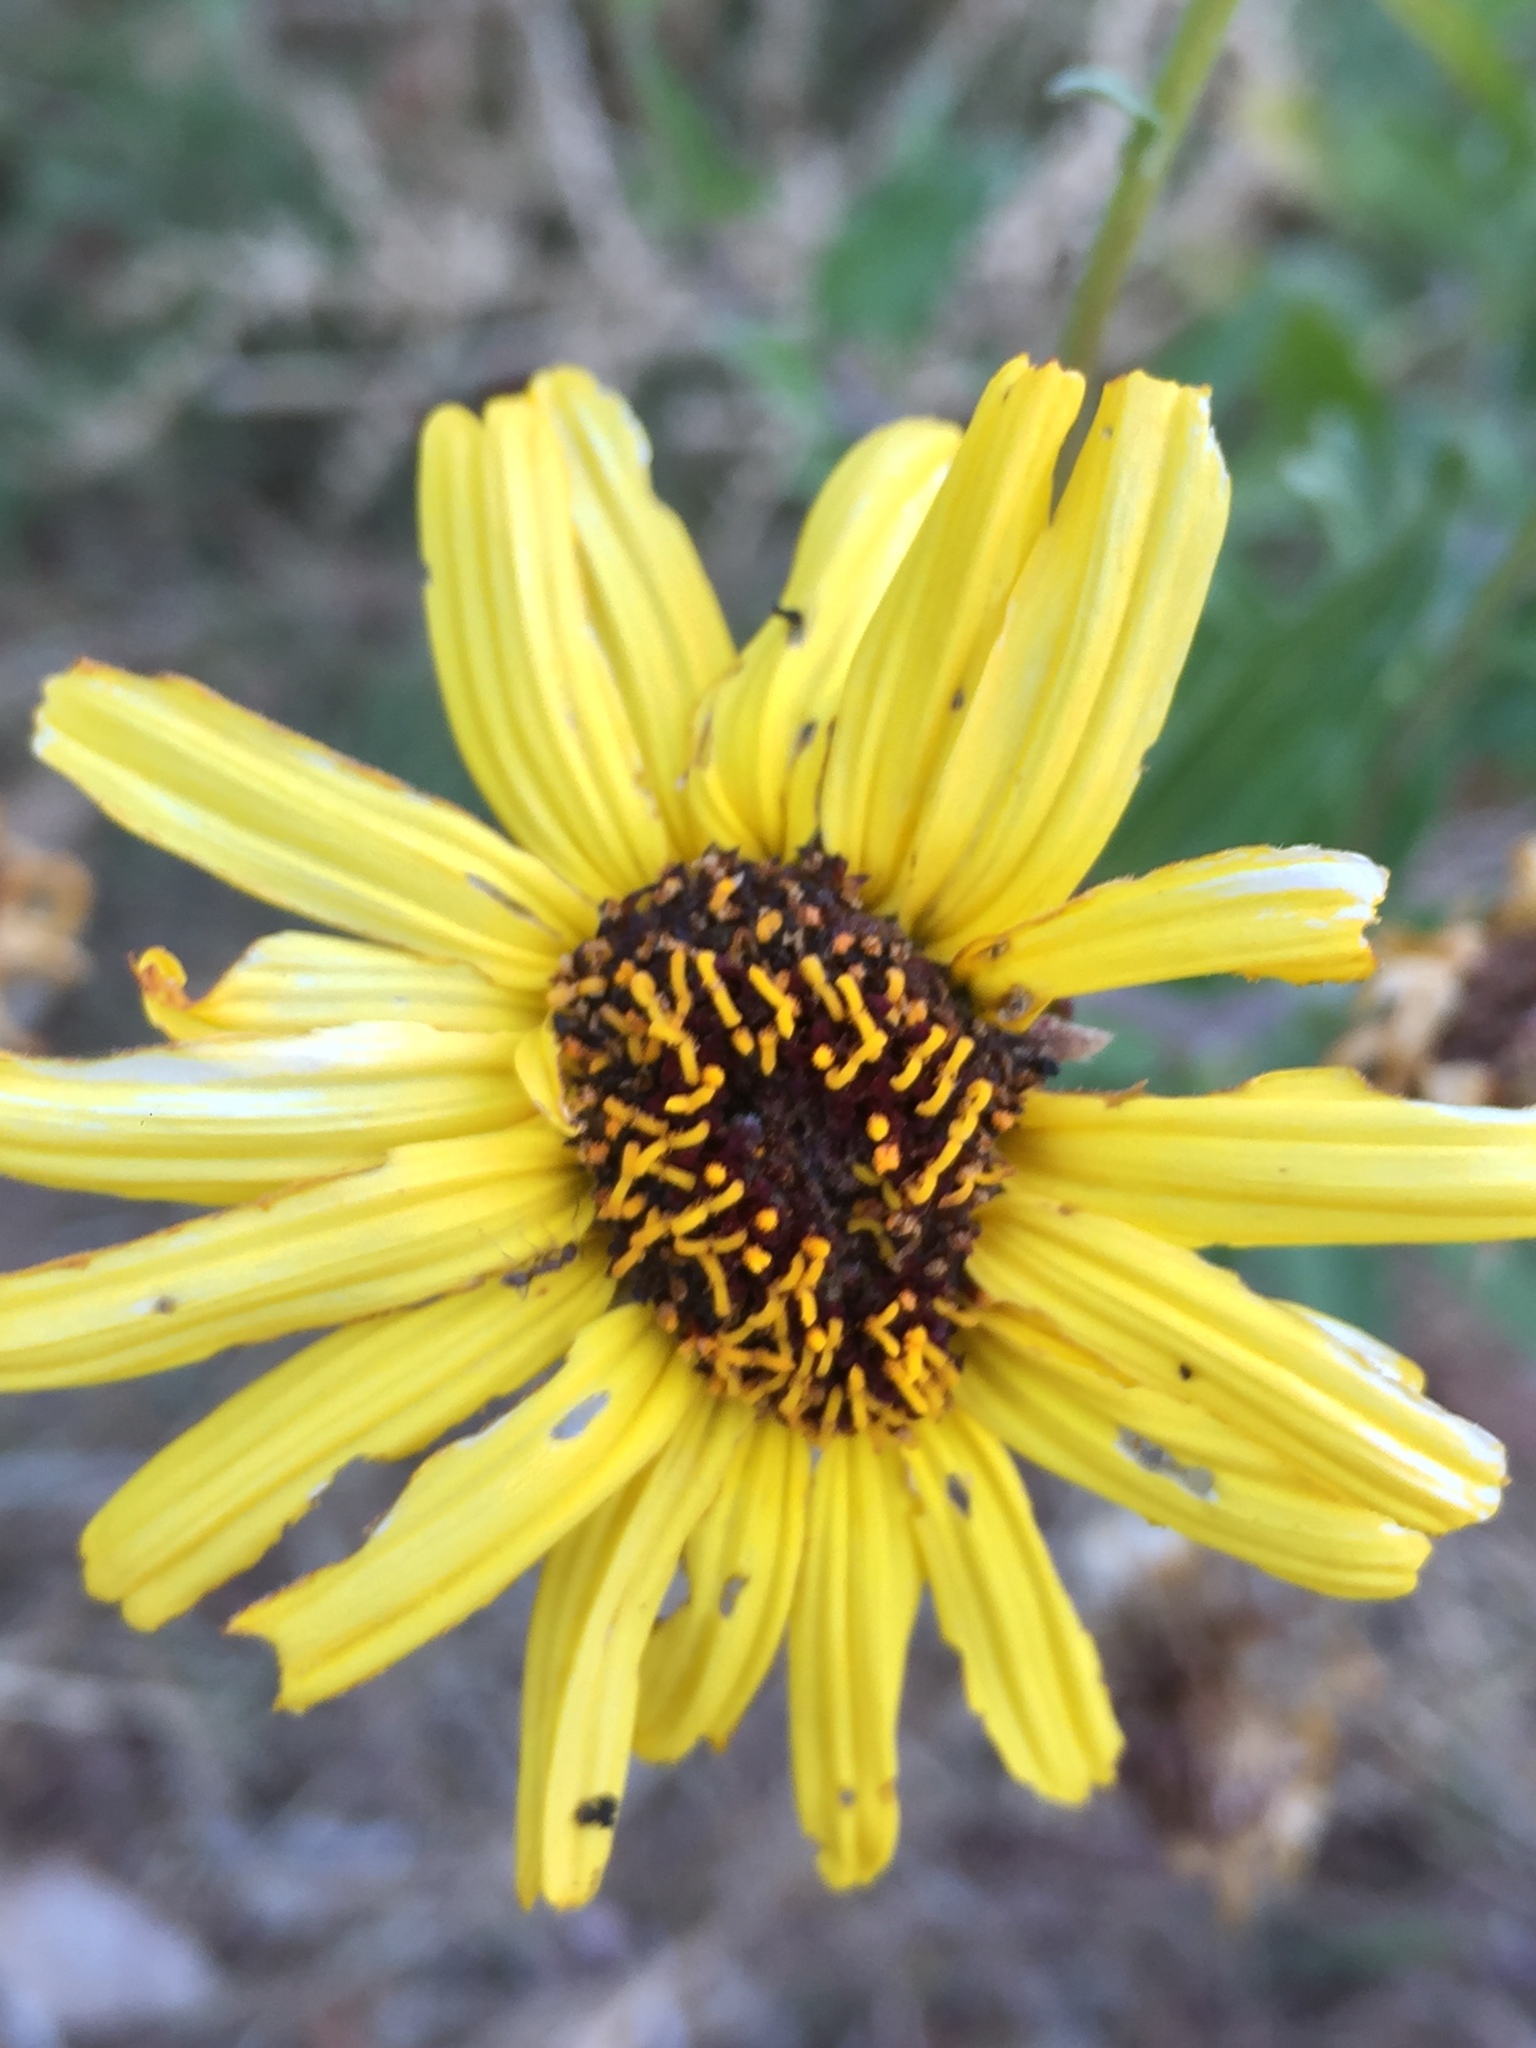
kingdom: Plantae
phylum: Tracheophyta
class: Magnoliopsida
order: Asterales
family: Asteraceae
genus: Encelia
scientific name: Encelia californica
